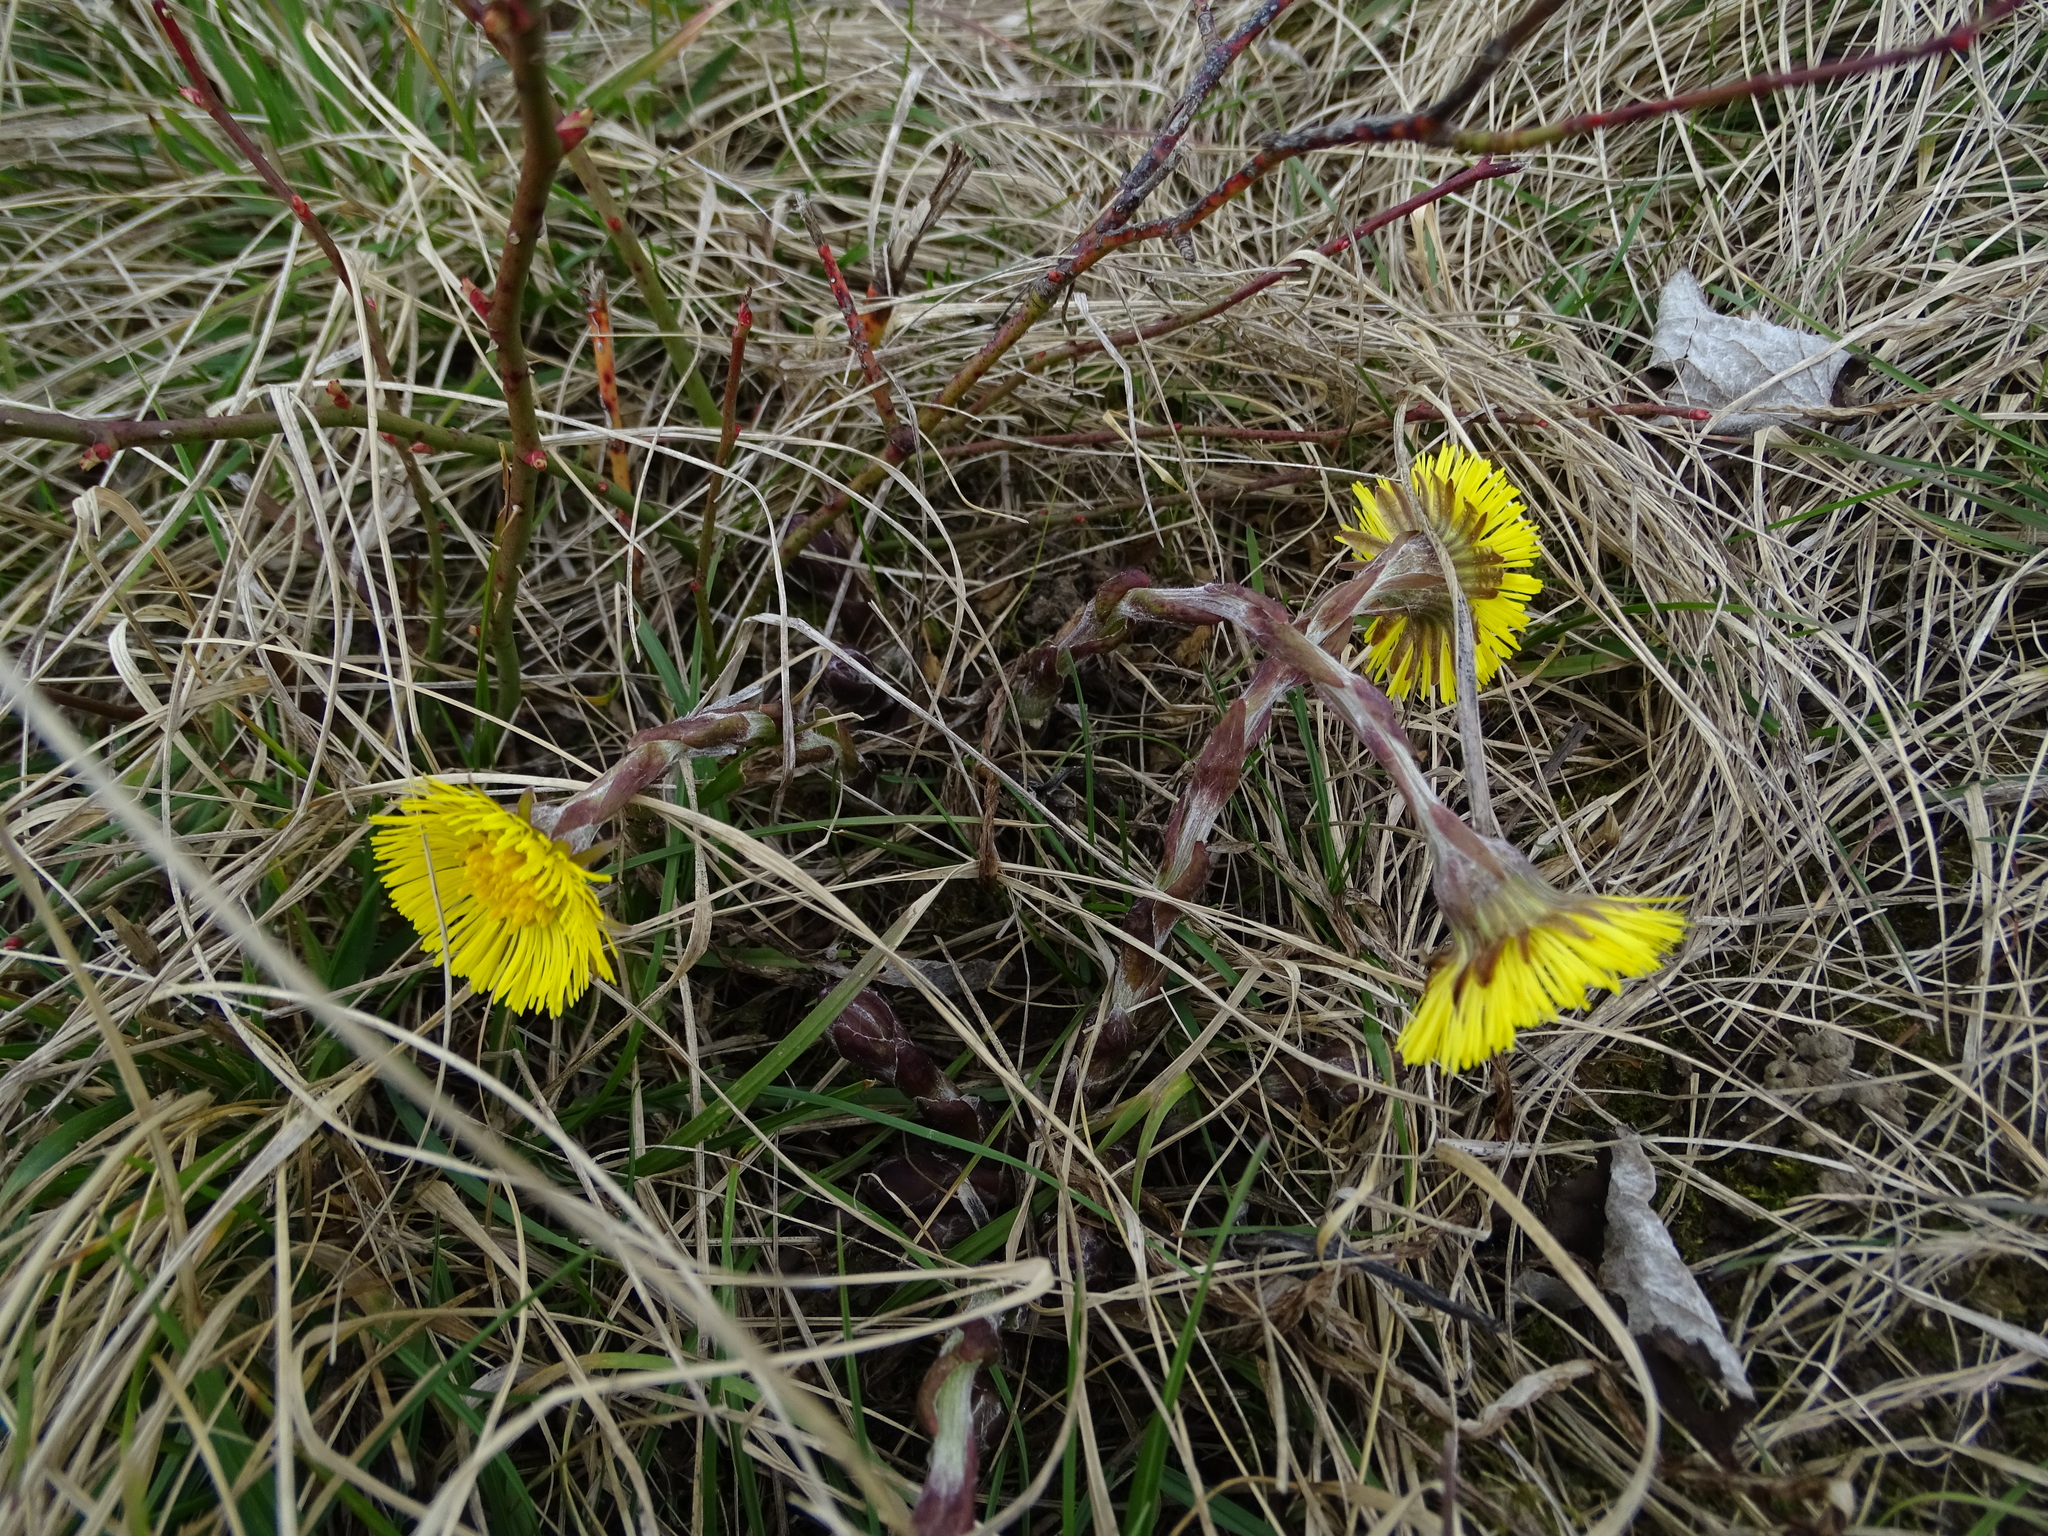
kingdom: Plantae
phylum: Tracheophyta
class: Magnoliopsida
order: Asterales
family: Asteraceae
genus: Tussilago
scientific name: Tussilago farfara
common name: Coltsfoot
